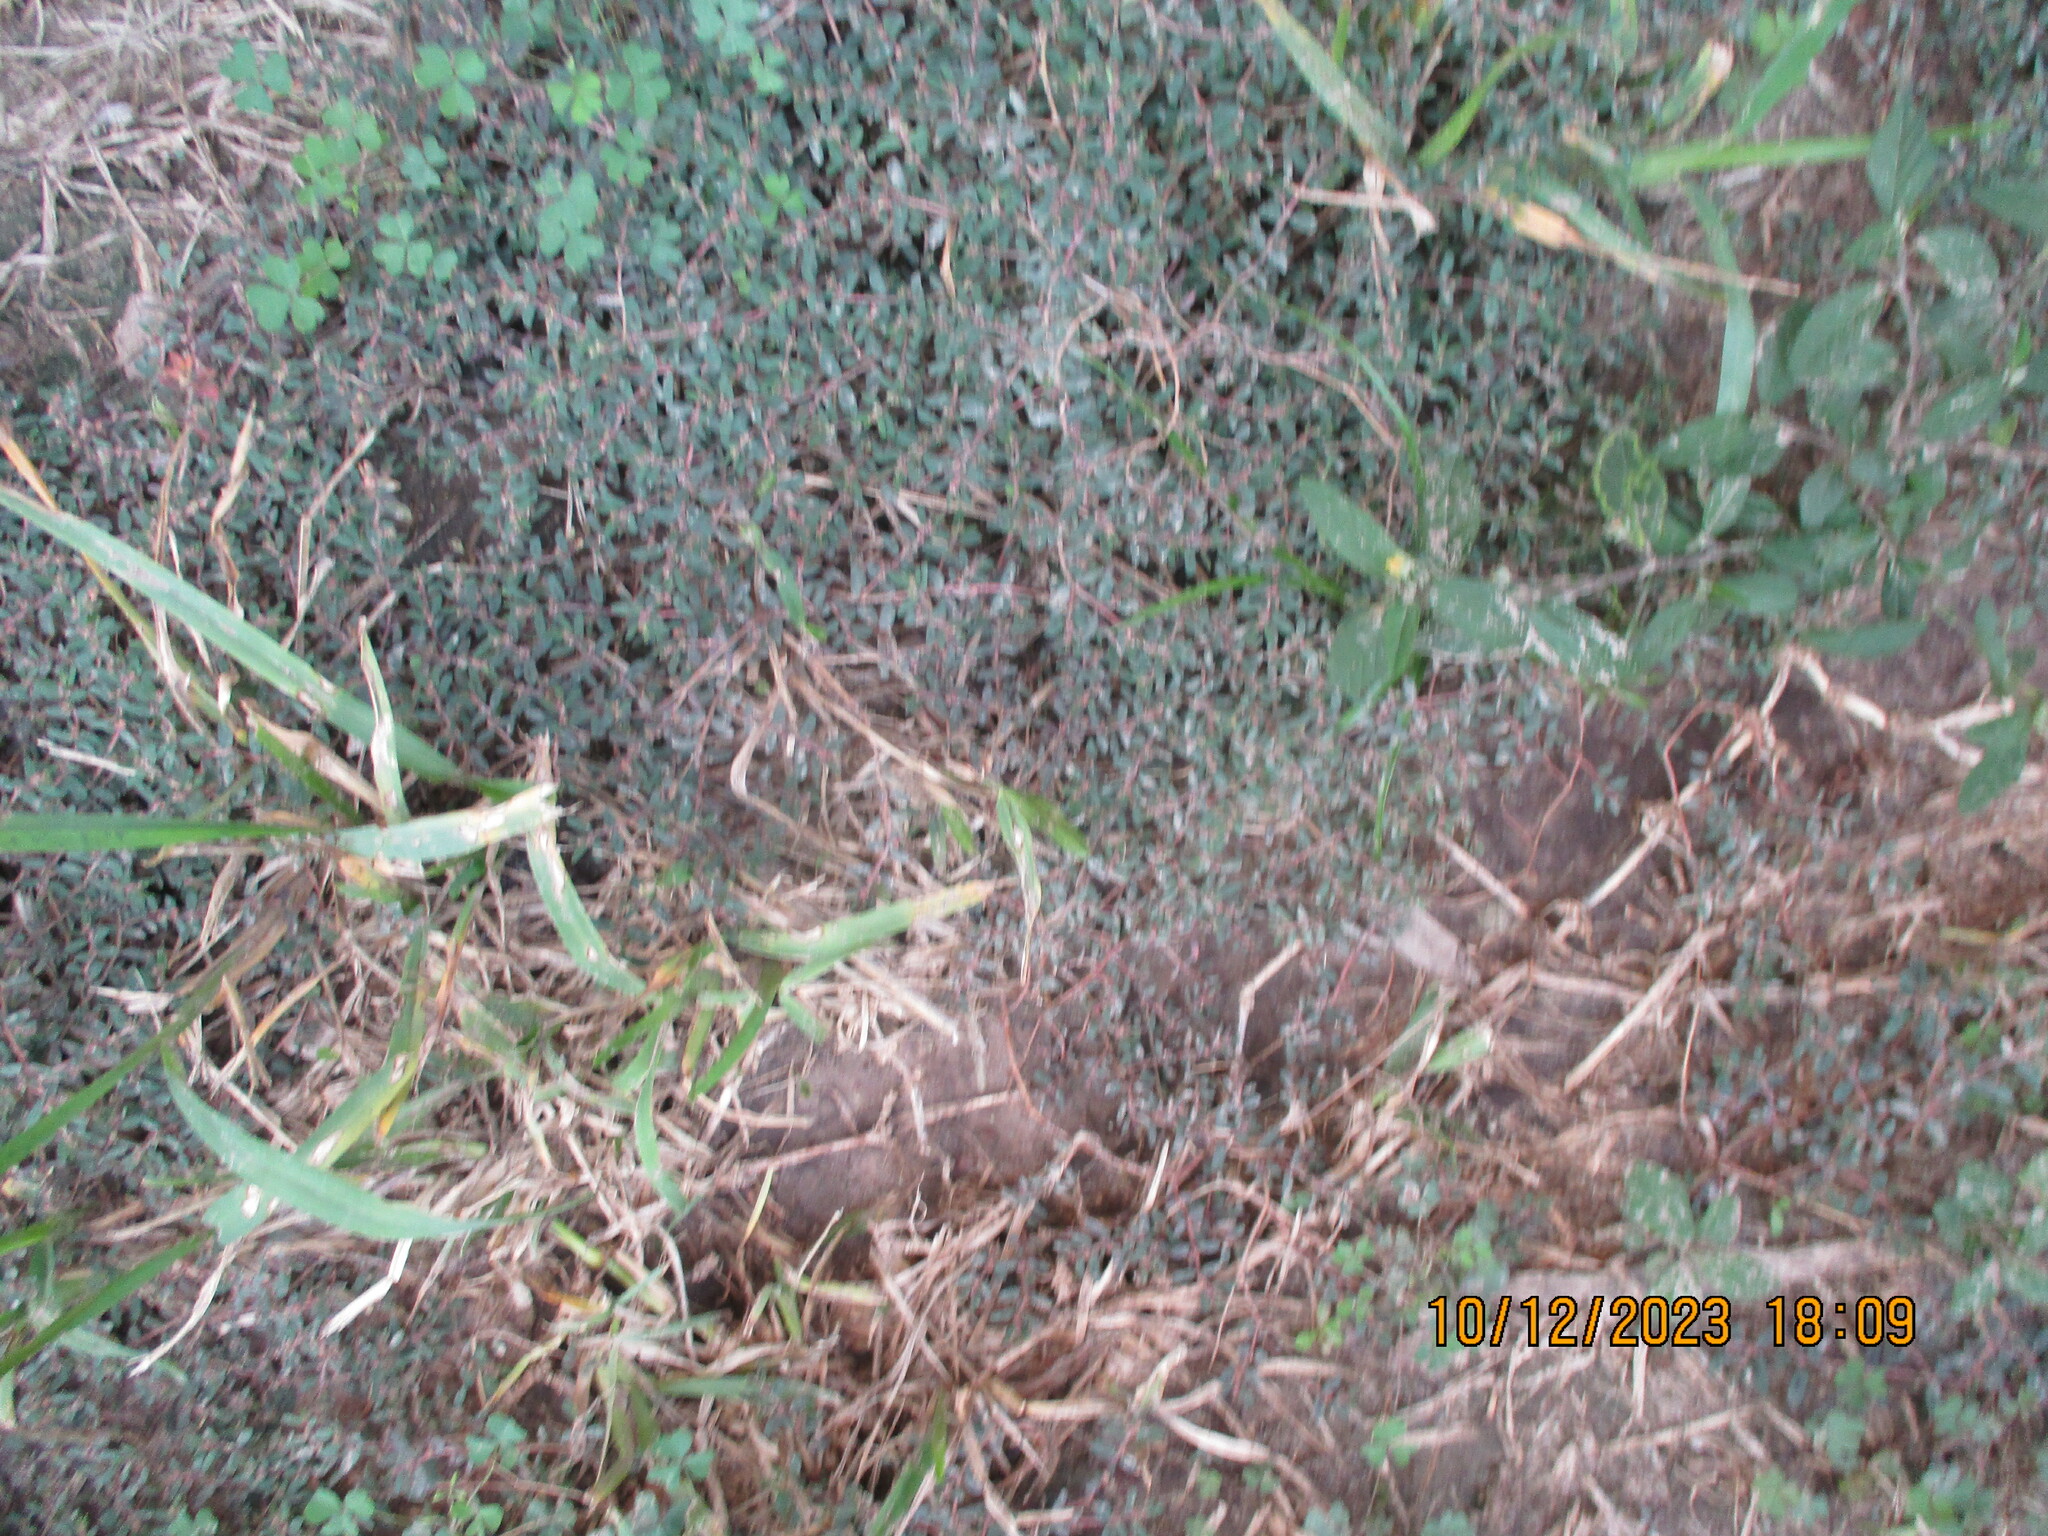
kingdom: Plantae
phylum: Tracheophyta
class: Magnoliopsida
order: Malpighiales
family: Euphorbiaceae
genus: Euphorbia
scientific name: Euphorbia maculata
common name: Spotted spurge
